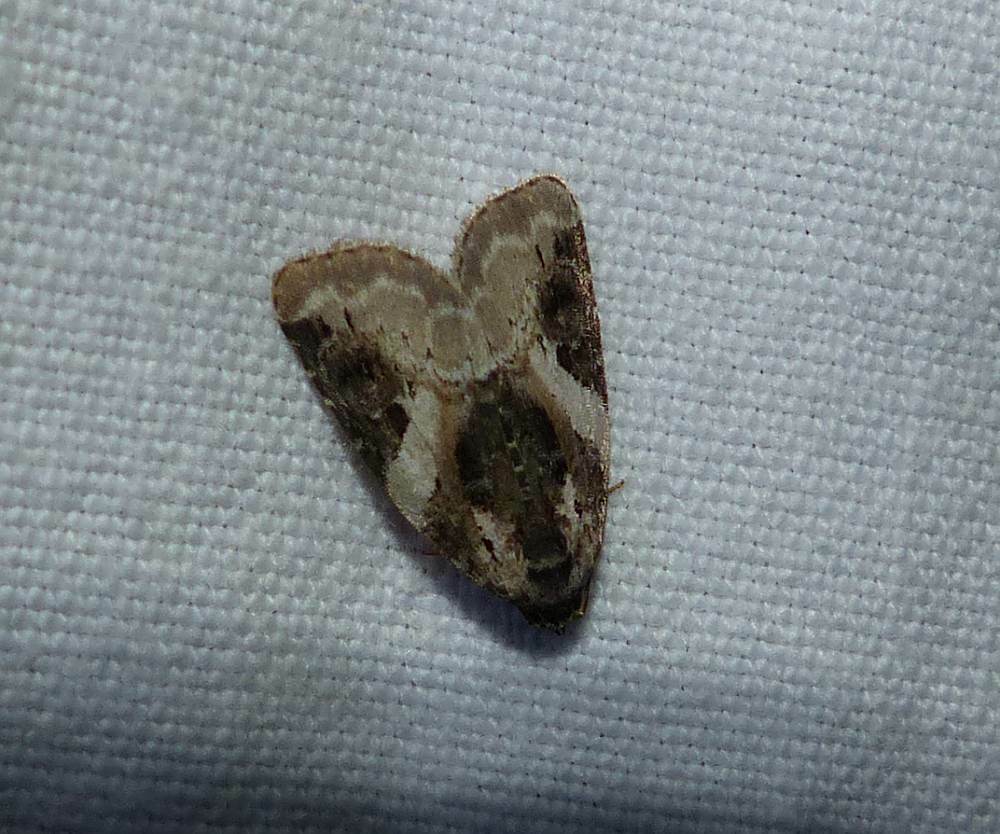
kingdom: Animalia
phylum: Arthropoda
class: Insecta
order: Lepidoptera
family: Noctuidae
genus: Pseudeustrotia
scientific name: Pseudeustrotia carneola
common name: Pink-barred lithacodia moth
